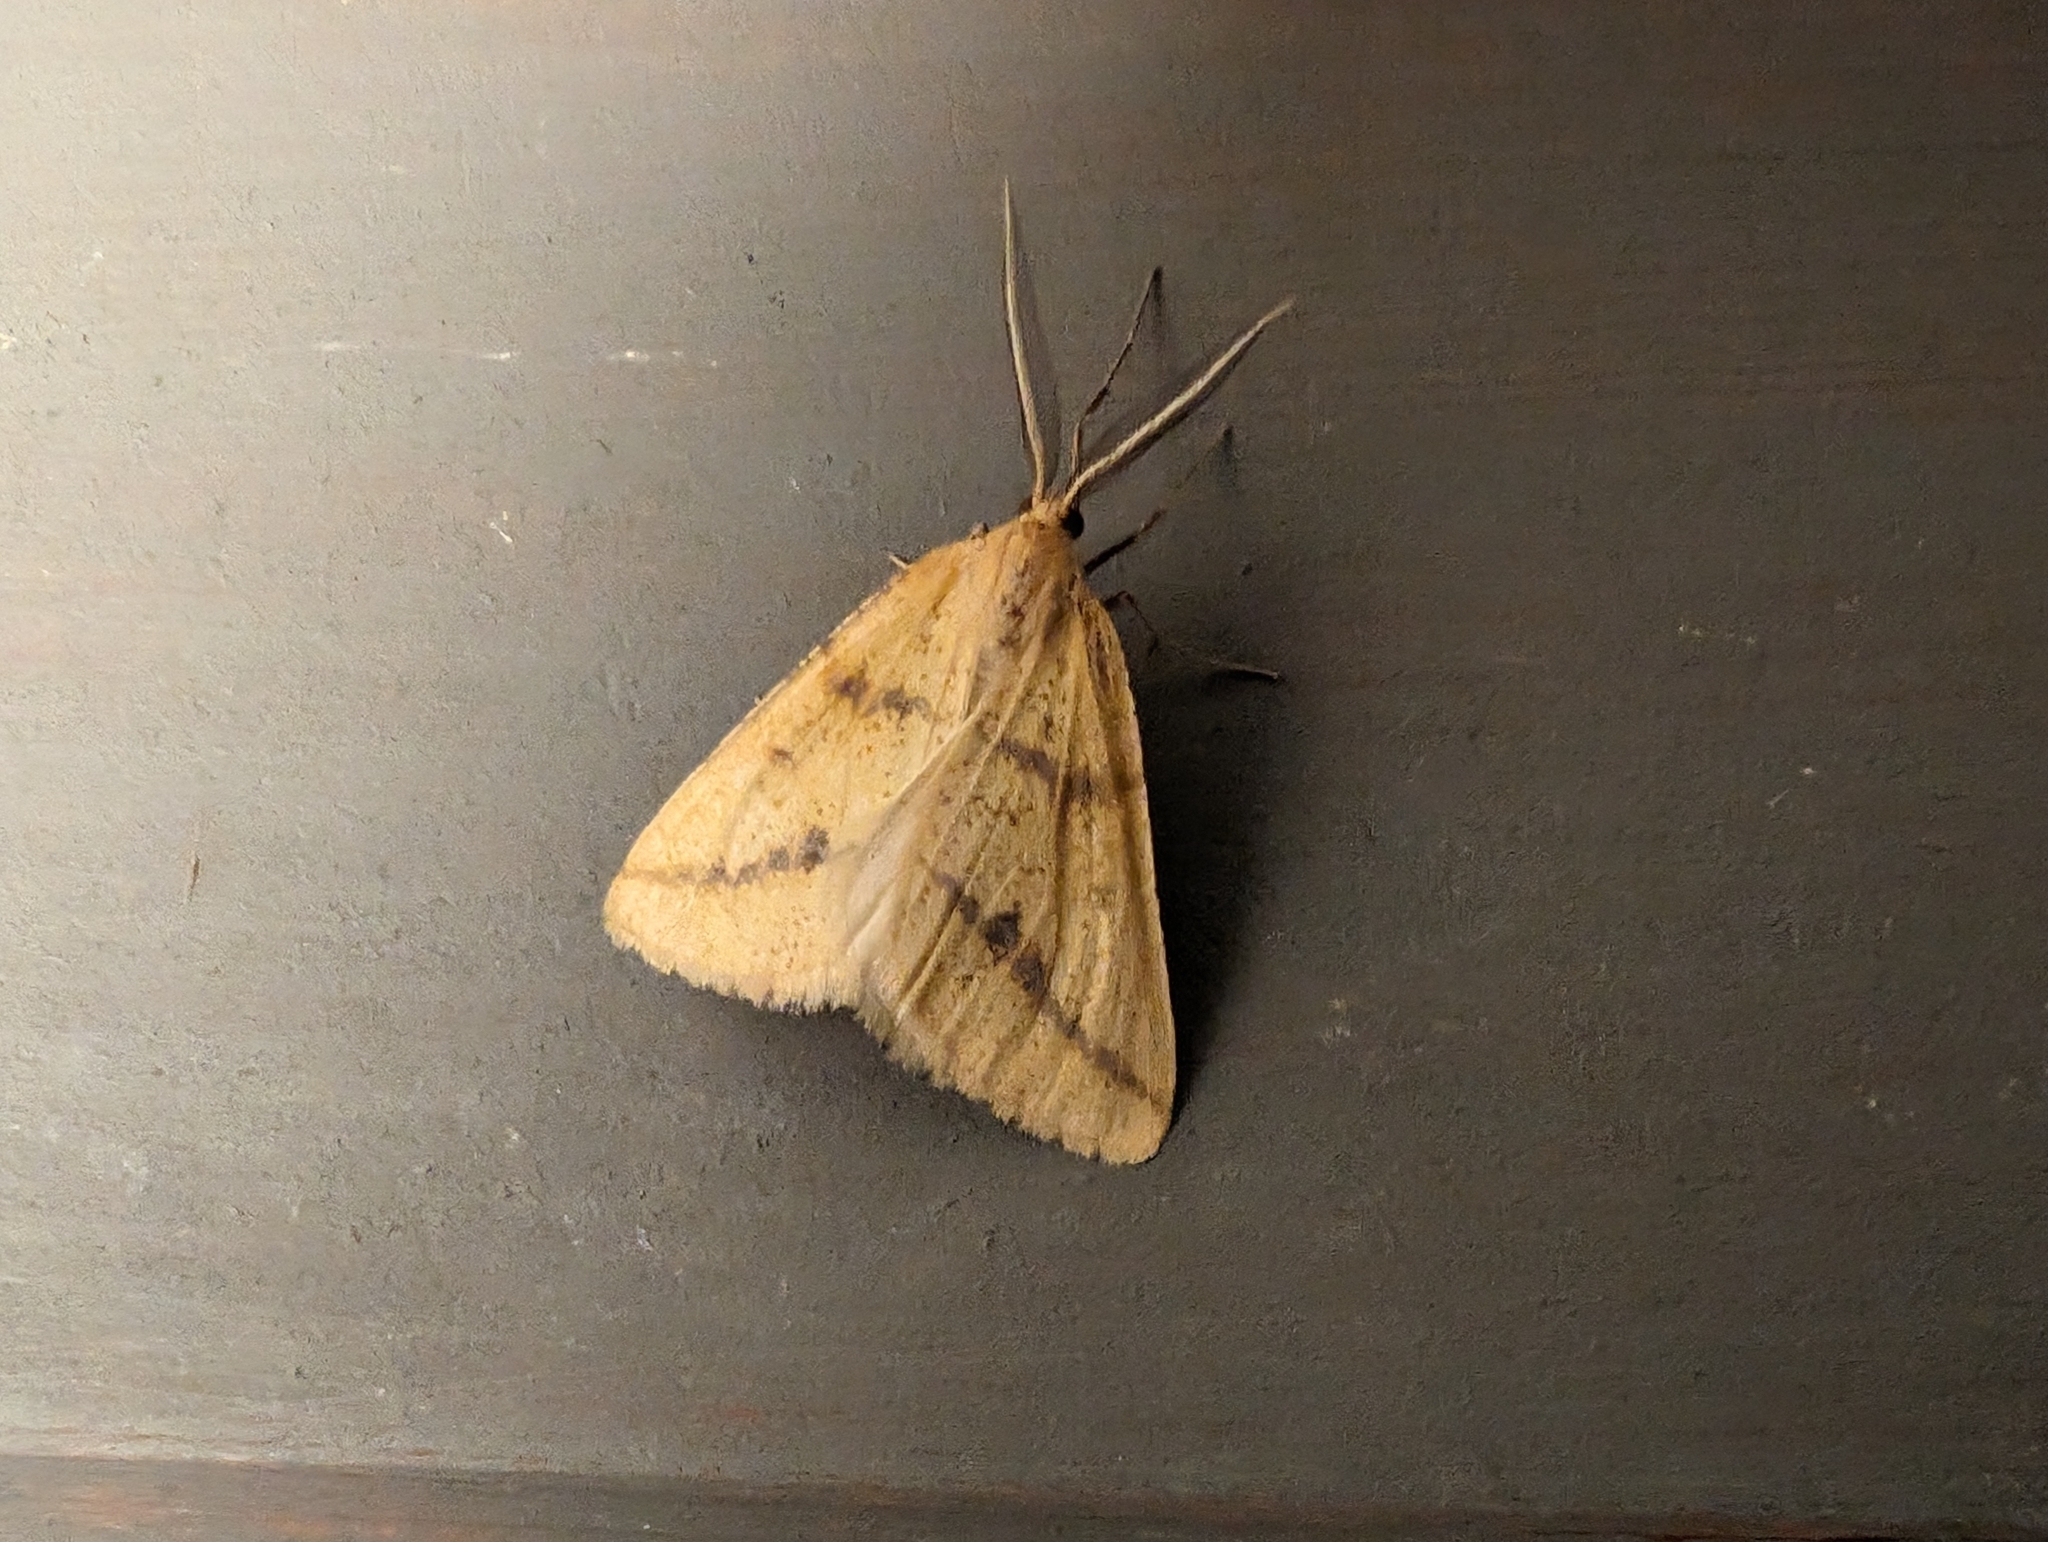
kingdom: Animalia
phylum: Arthropoda
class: Insecta
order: Lepidoptera
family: Geometridae
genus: Aspitates
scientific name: Aspitates ochrearia
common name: Yellow belle
